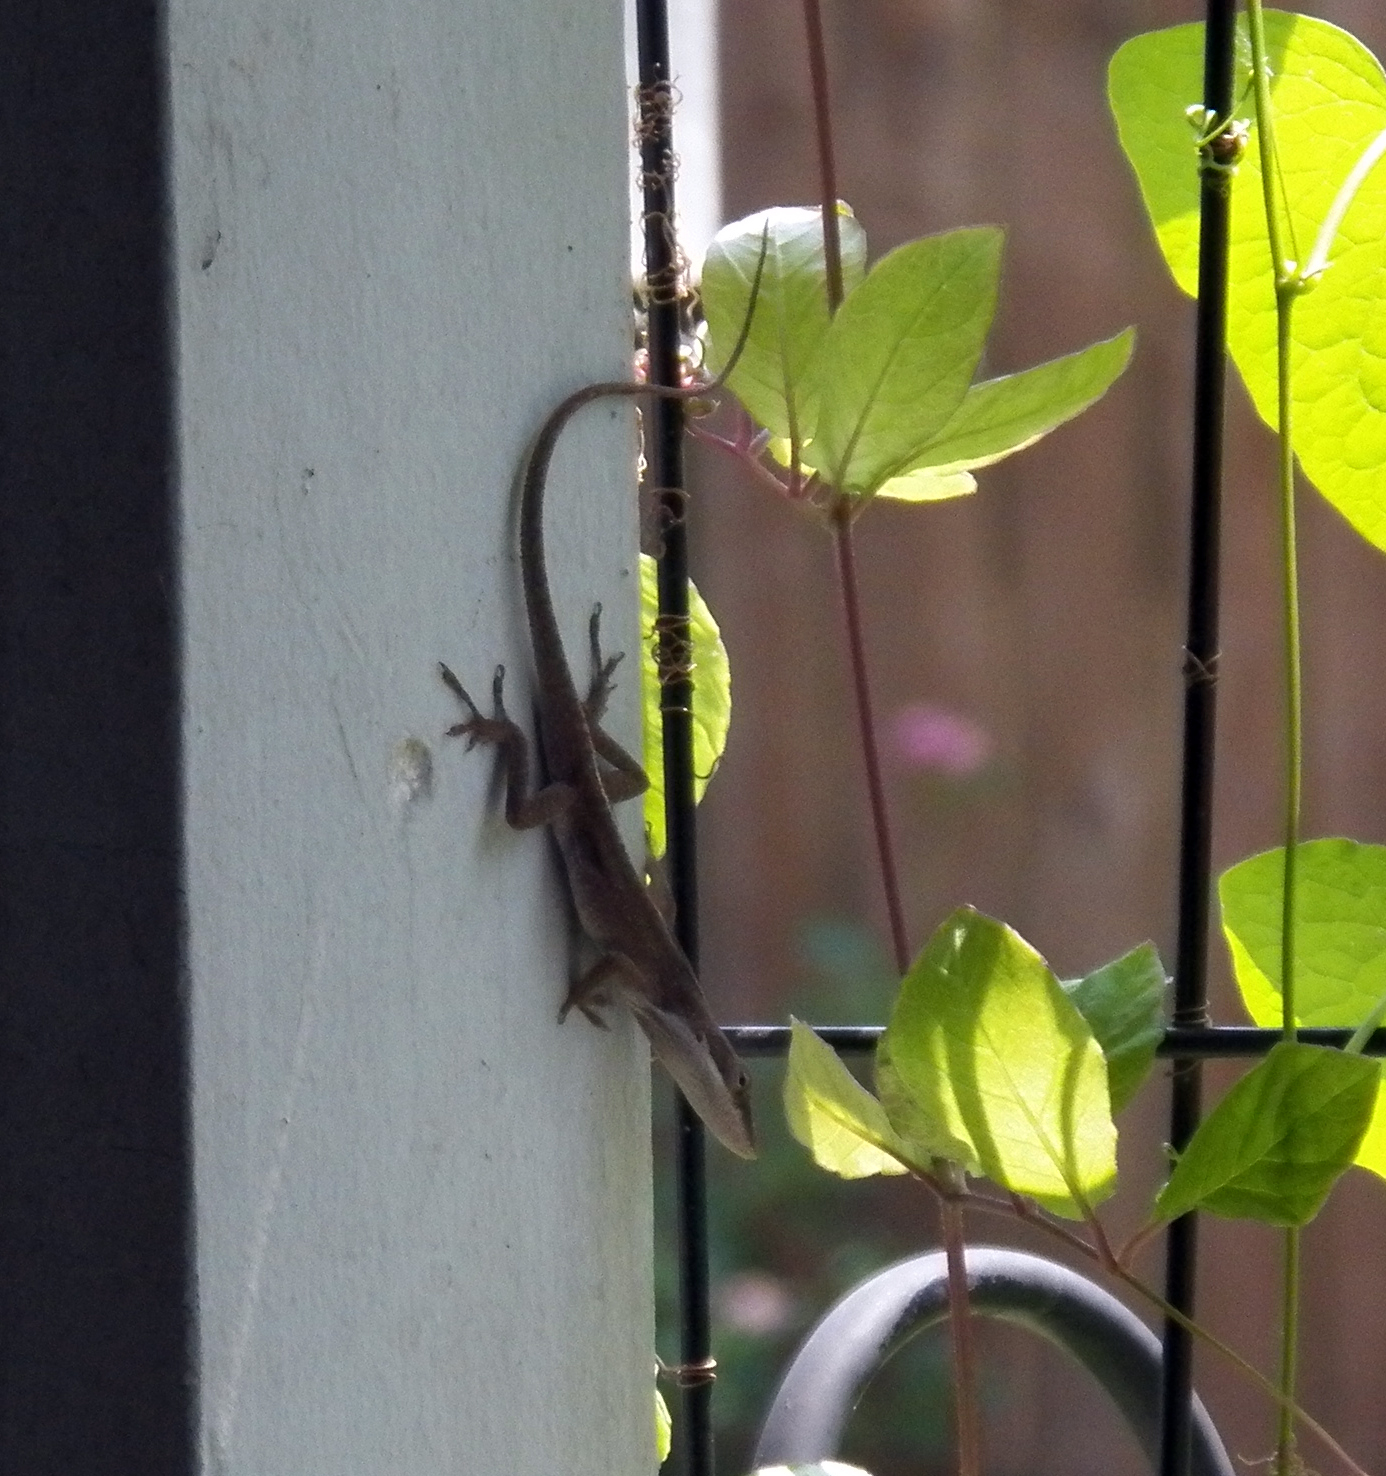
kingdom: Animalia
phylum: Chordata
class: Squamata
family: Dactyloidae
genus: Anolis
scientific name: Anolis carolinensis
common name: Green anole
